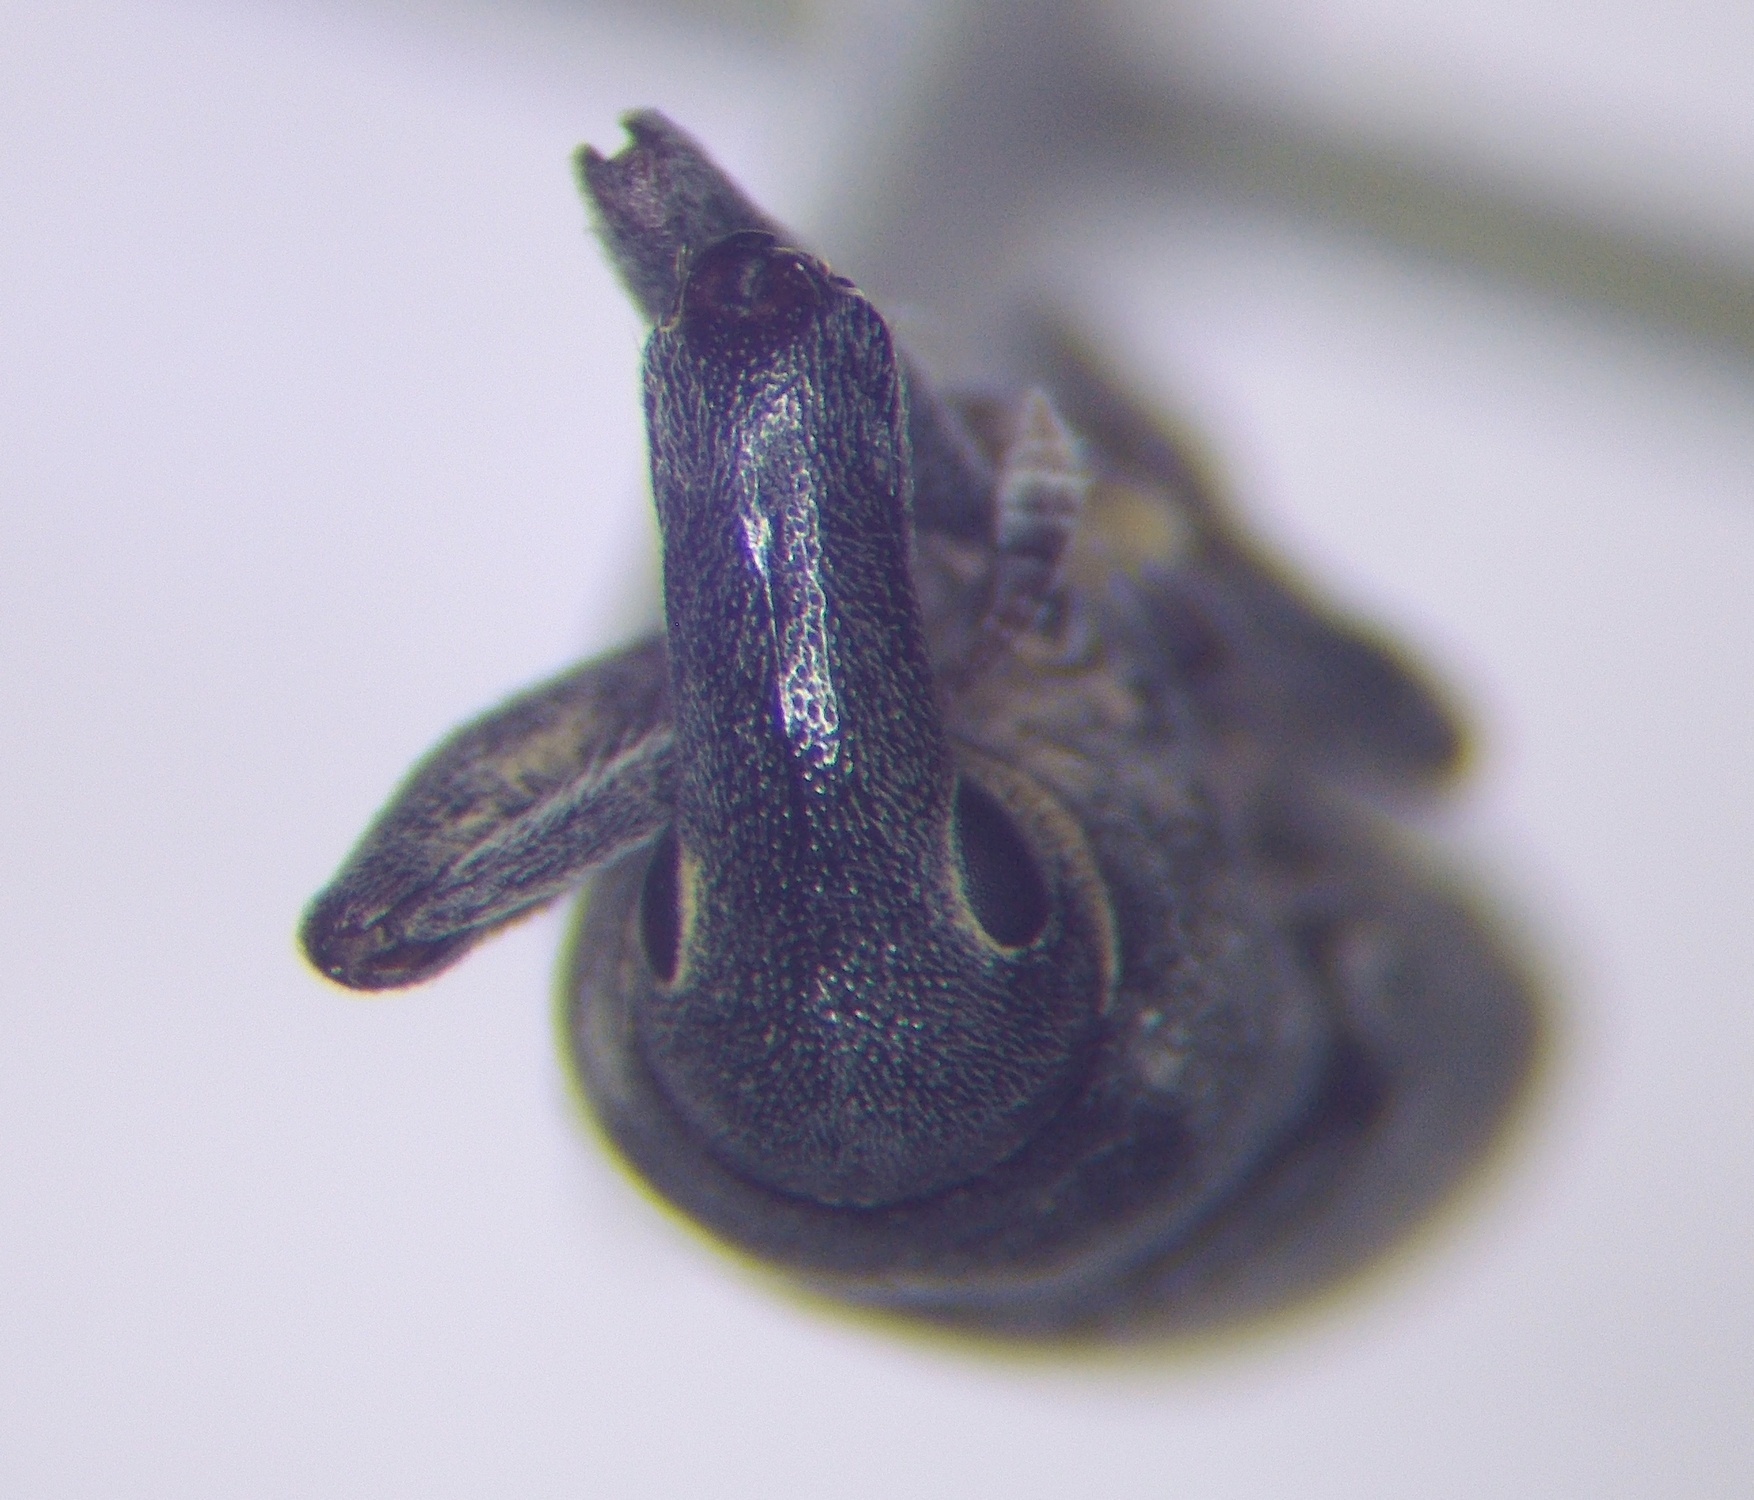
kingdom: Animalia
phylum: Arthropoda
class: Insecta
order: Coleoptera
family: Curculionidae
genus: Lixus
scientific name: Lixus cinerascens
